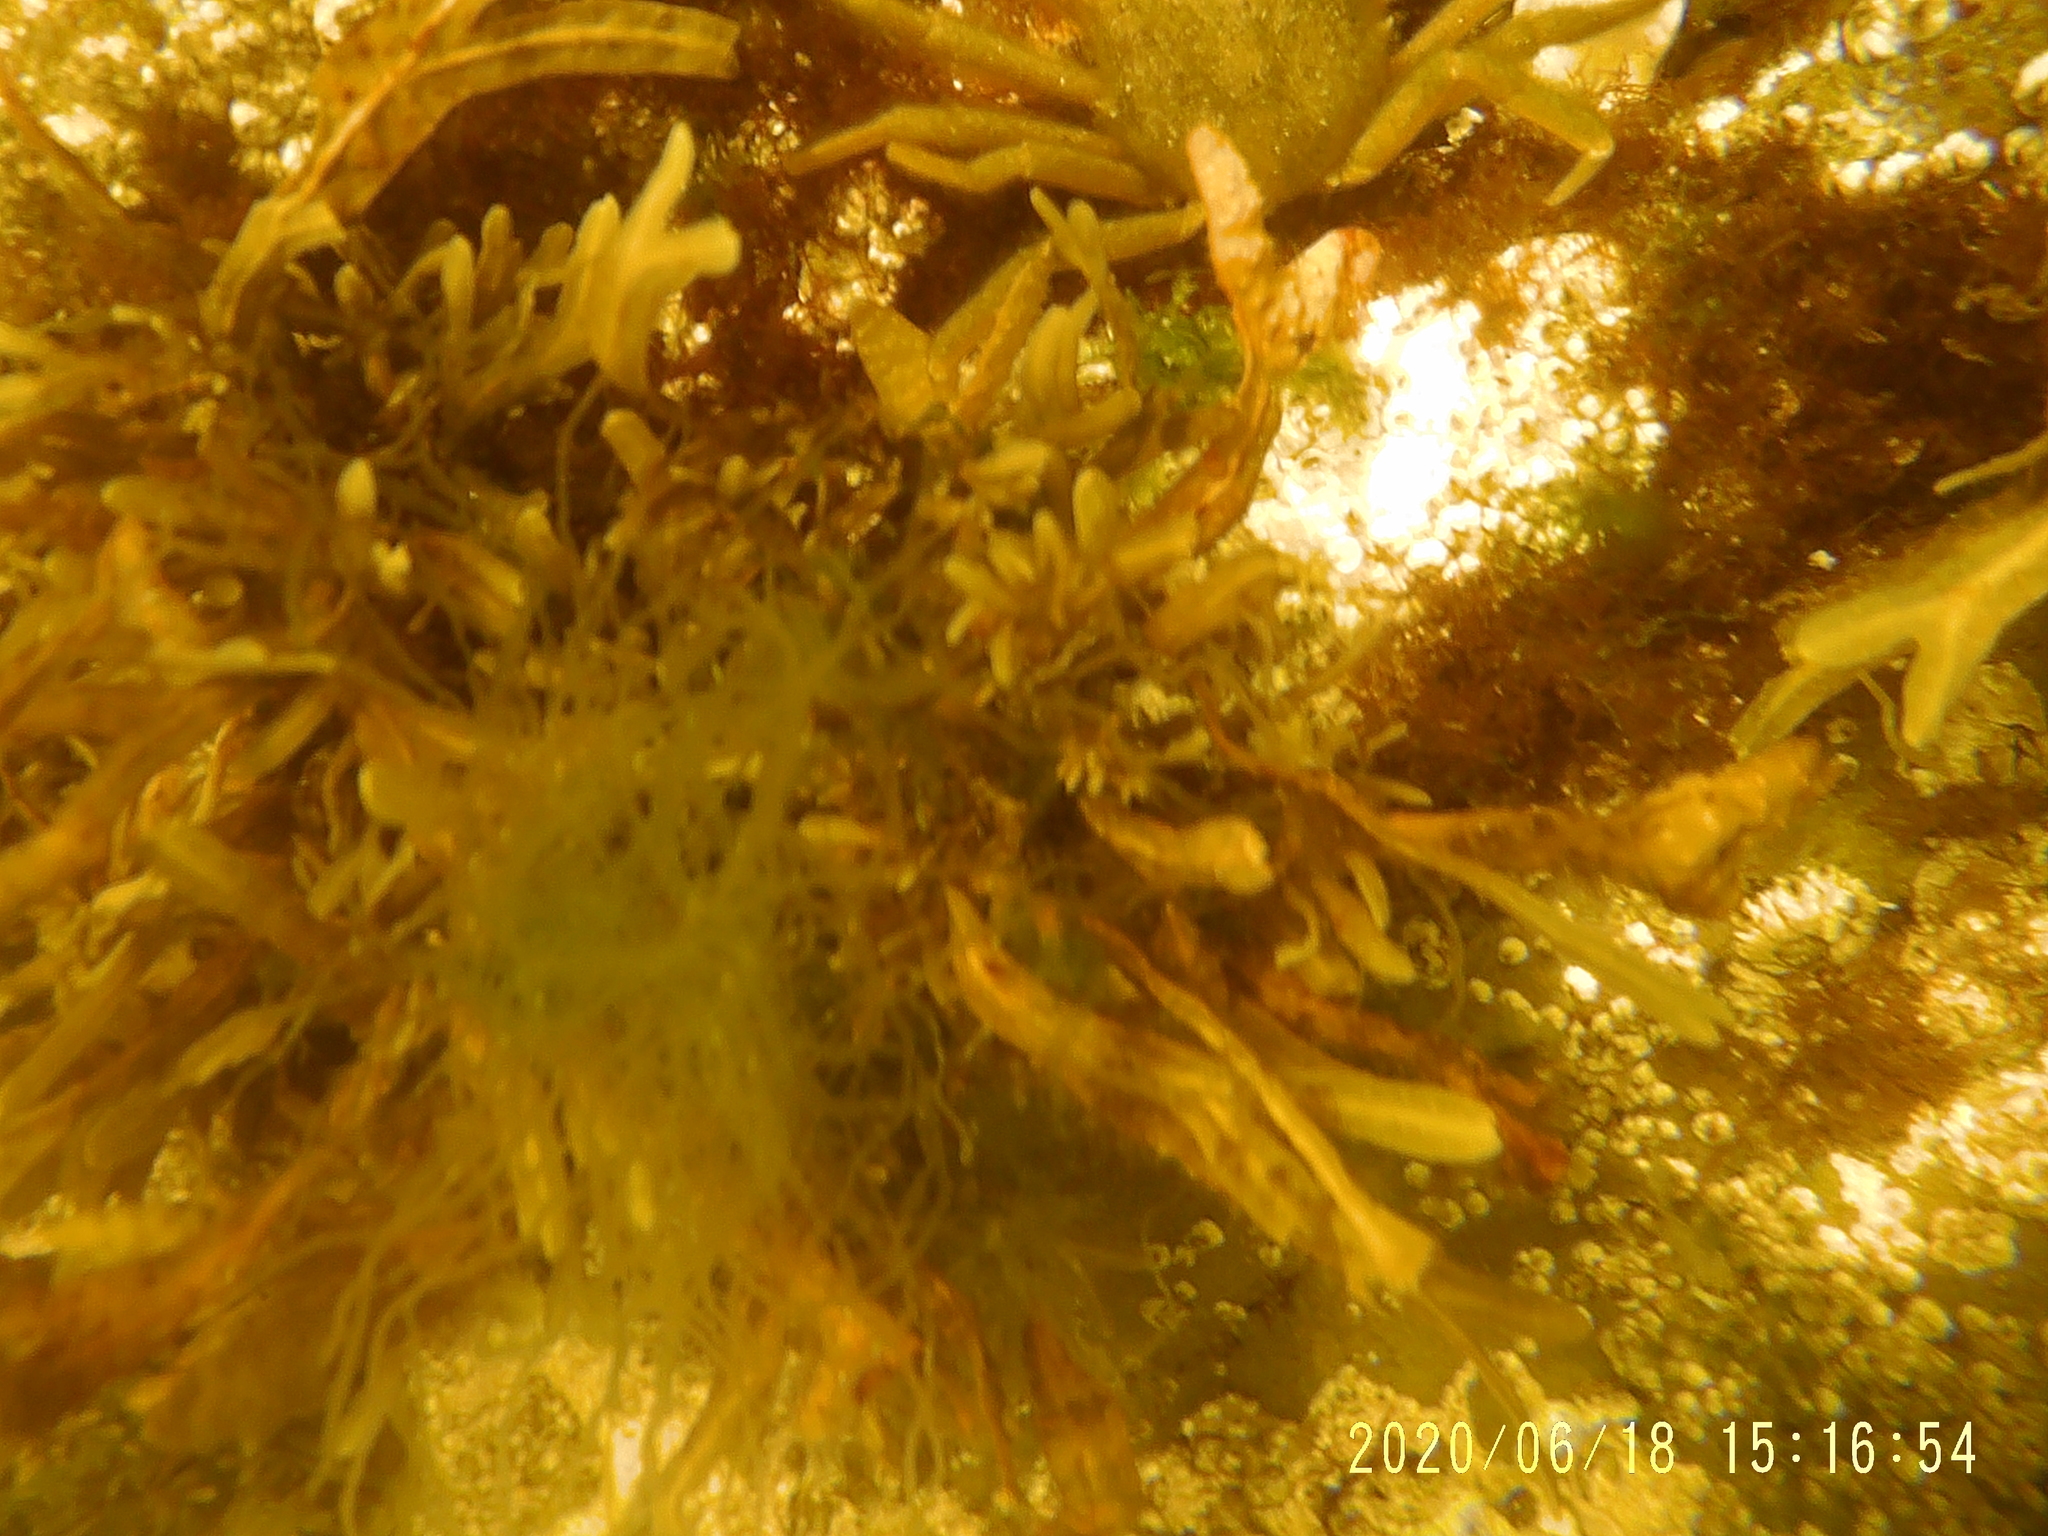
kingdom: Chromista
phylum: Ochrophyta
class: Phaeophyceae
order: Fucales
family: Fucaceae
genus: Fucus
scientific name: Fucus distichus
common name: Rockweed
